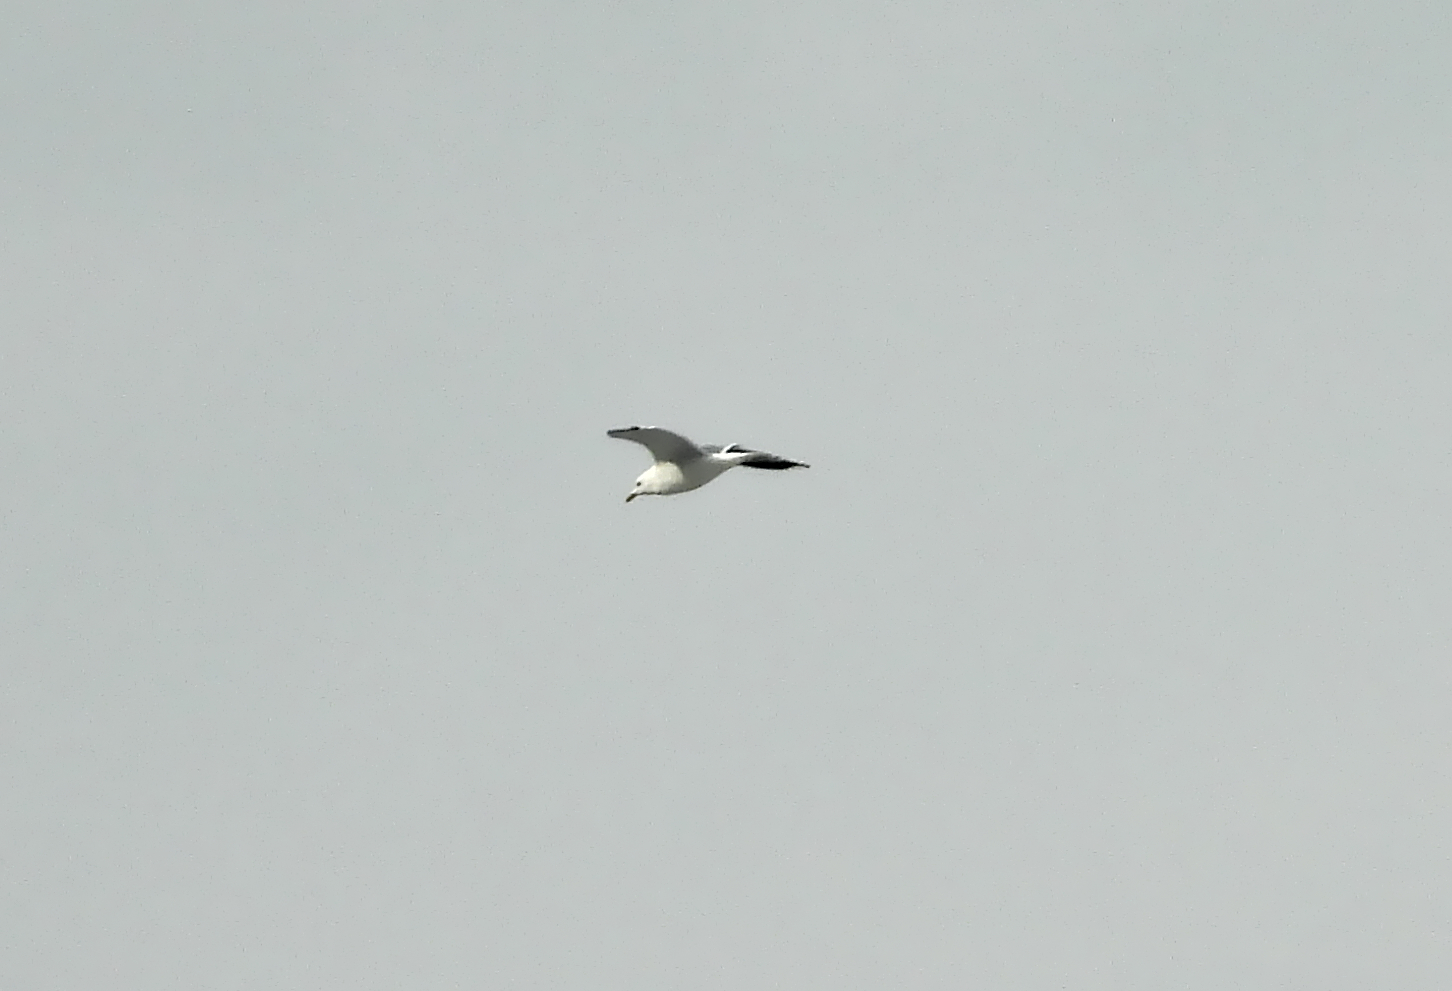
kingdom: Animalia
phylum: Chordata
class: Aves
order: Charadriiformes
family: Laridae
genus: Larus
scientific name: Larus canus
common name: Mew gull
